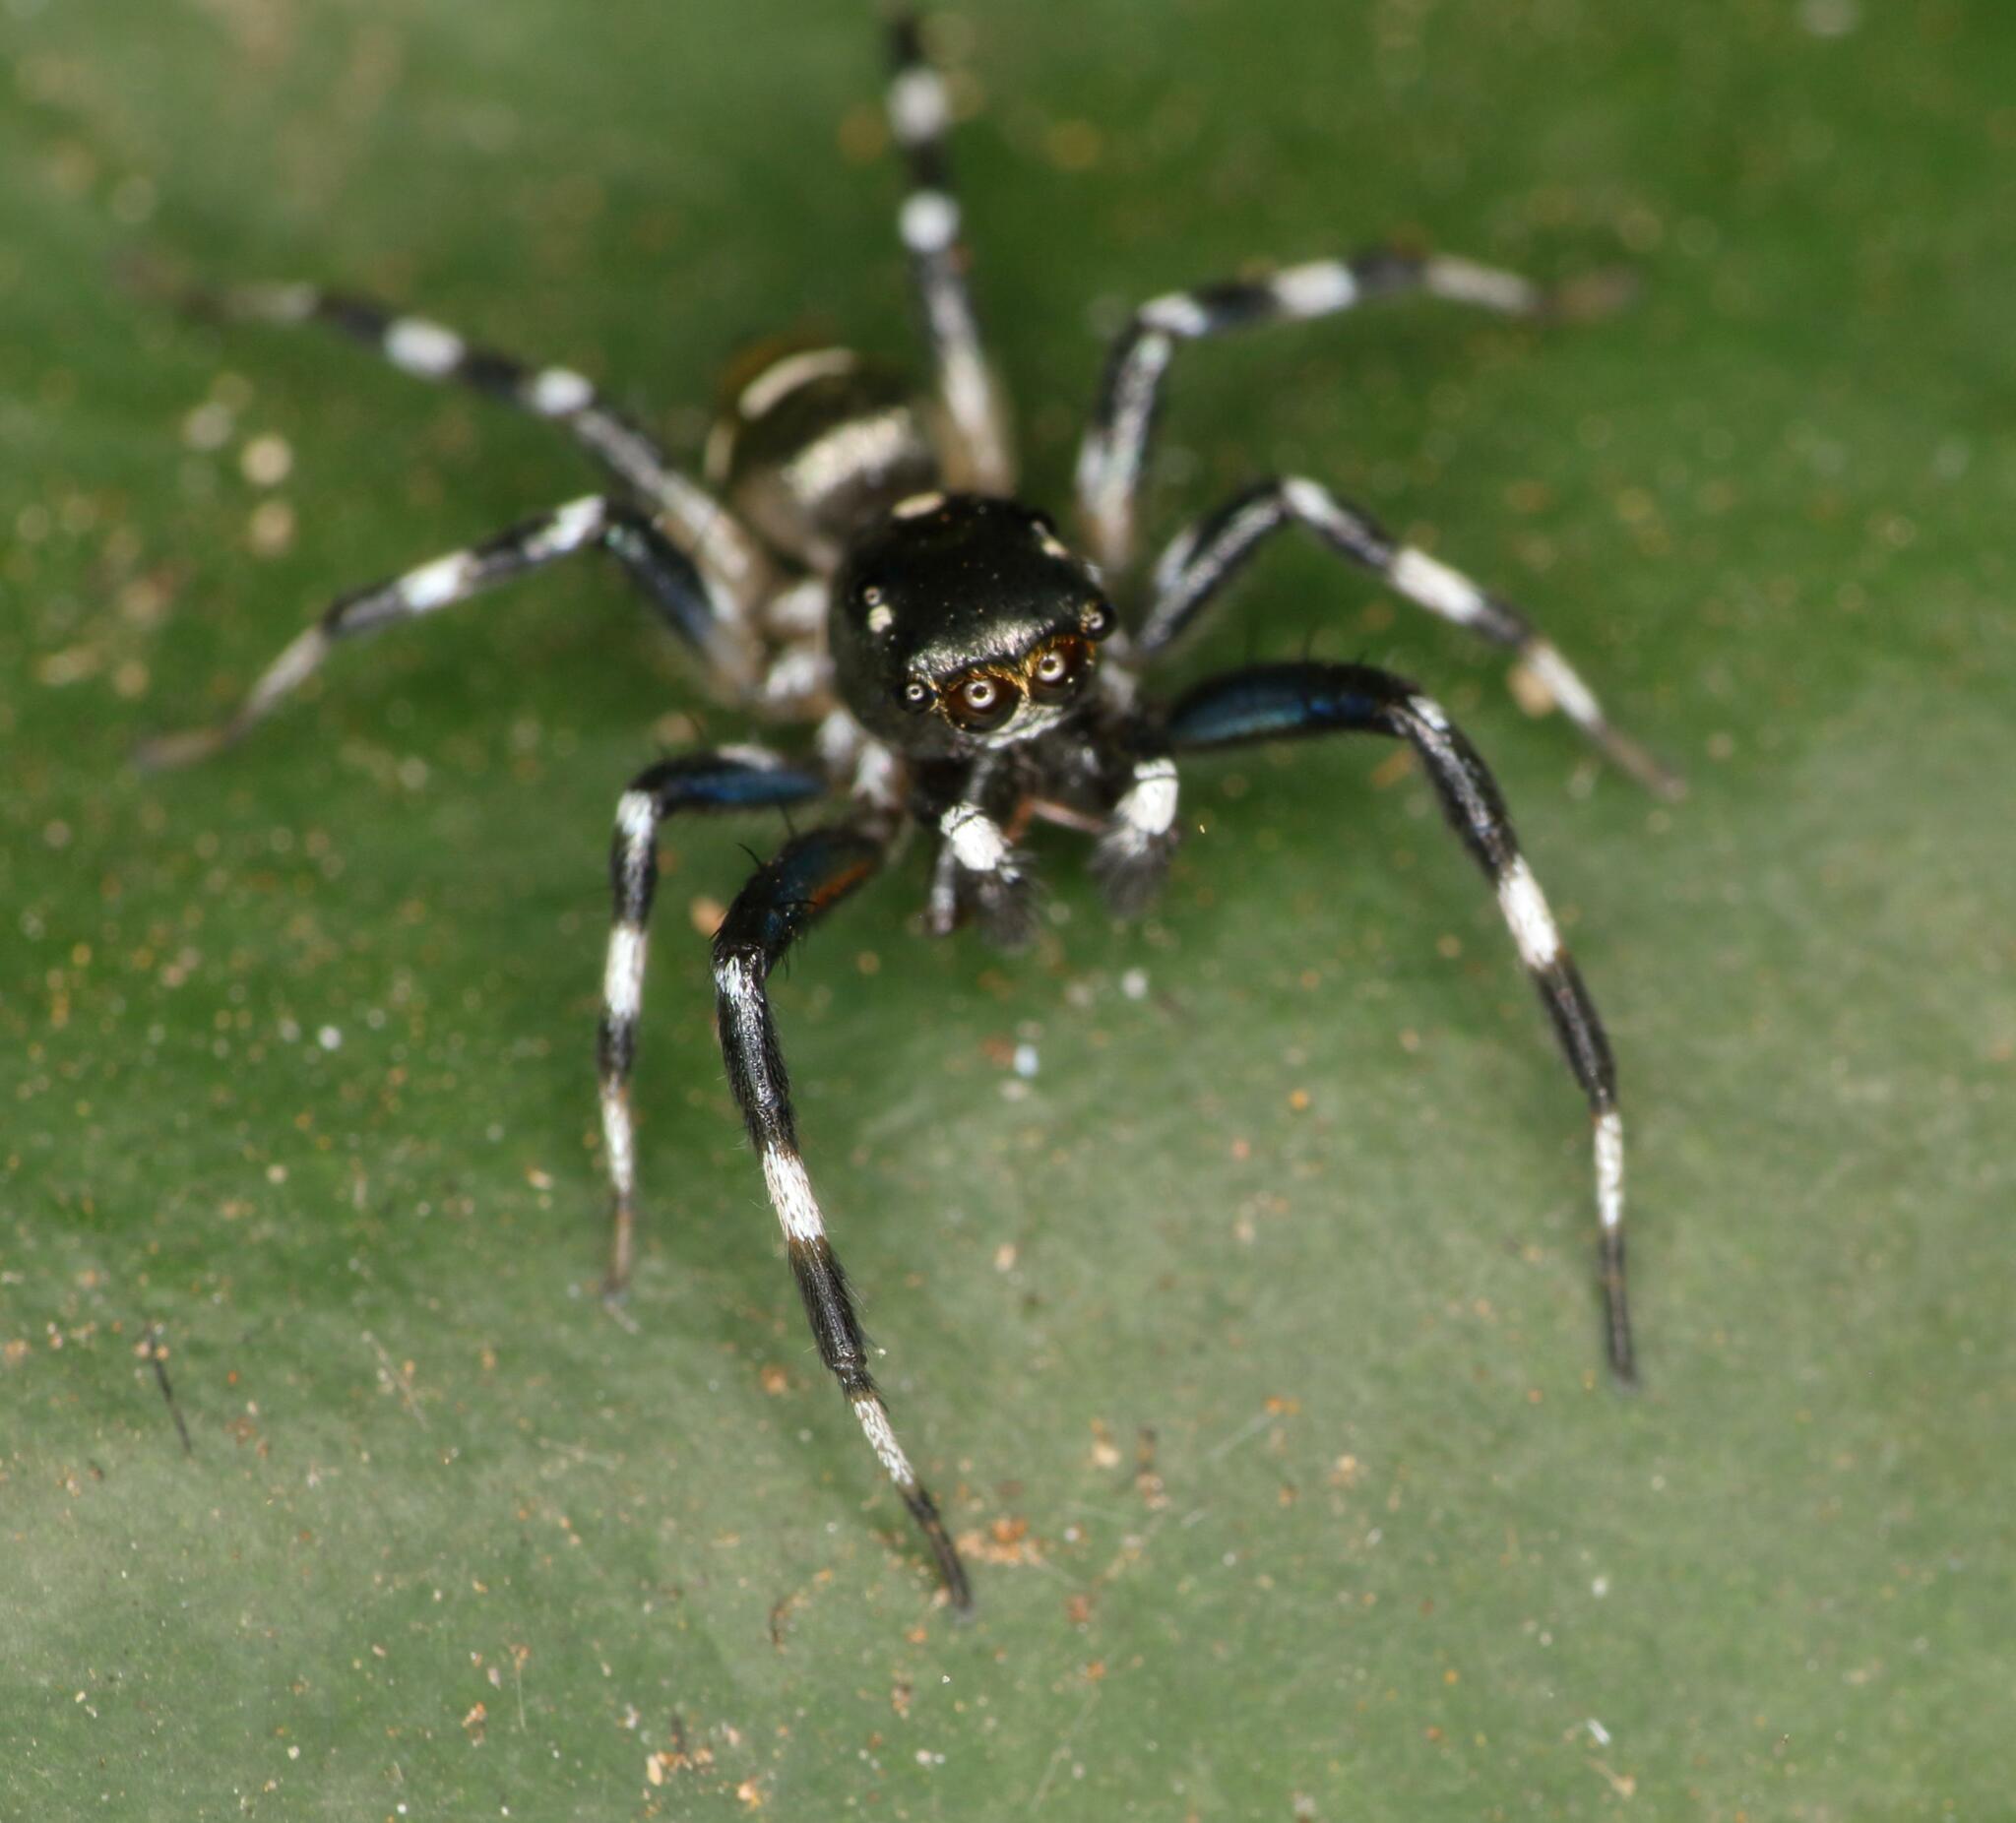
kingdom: Animalia
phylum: Arthropoda
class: Arachnida
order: Araneae
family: Salticidae
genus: Phintella
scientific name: Phintella aequipes
